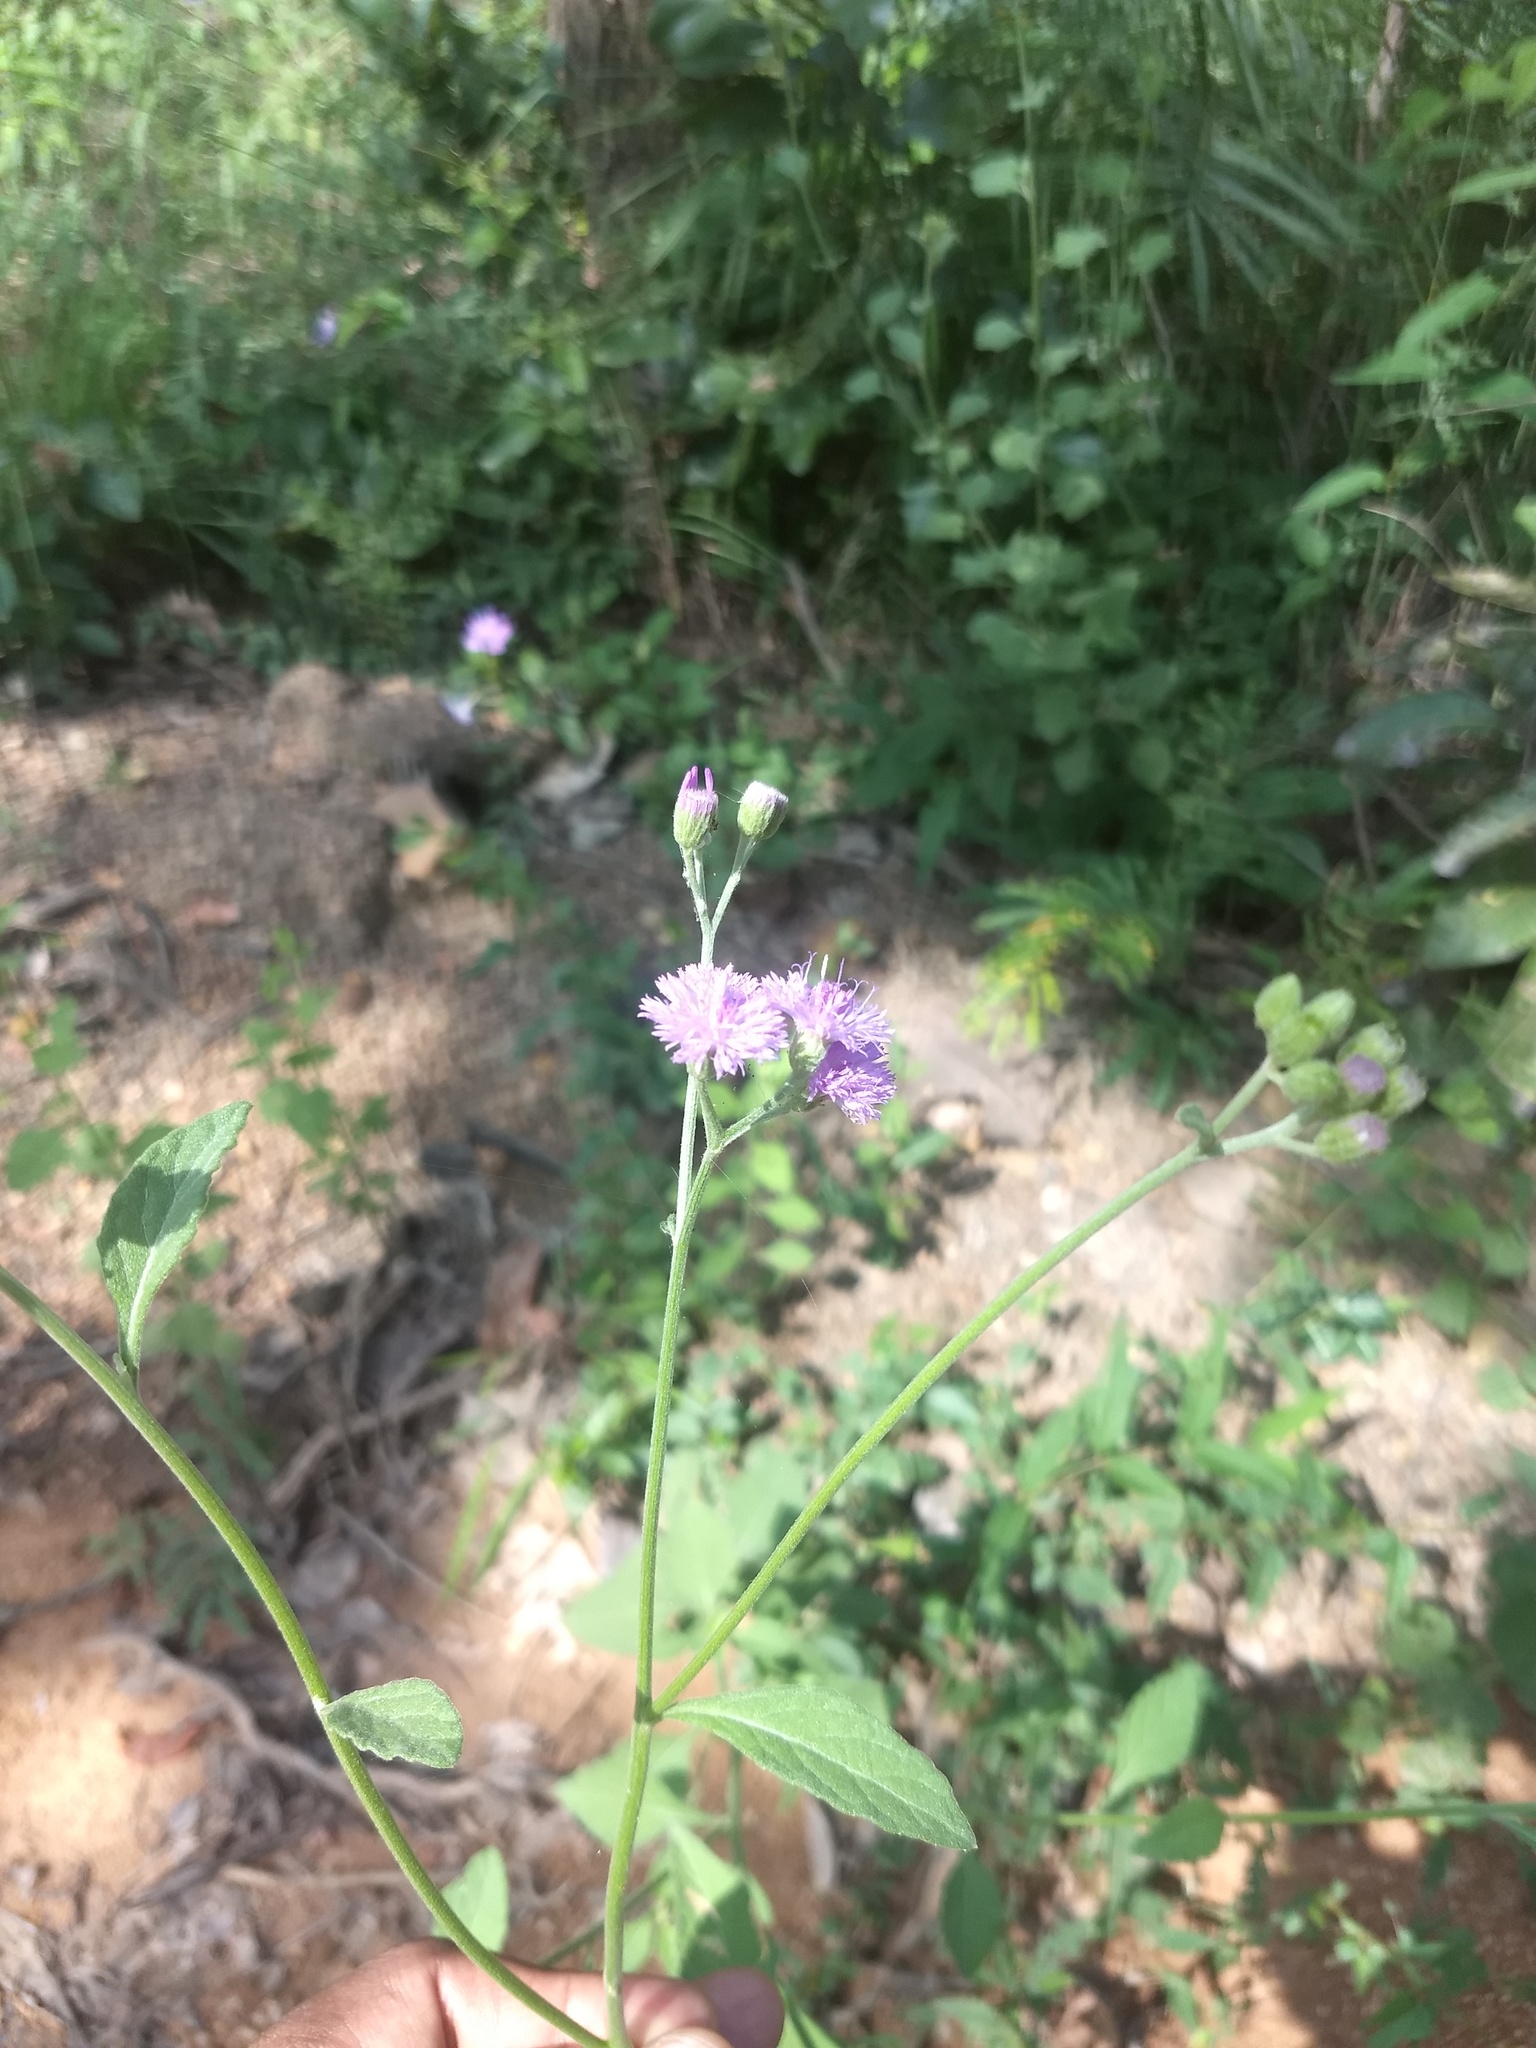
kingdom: Plantae
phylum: Tracheophyta
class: Magnoliopsida
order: Asterales
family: Asteraceae
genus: Cyanthillium
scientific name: Cyanthillium cinereum
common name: Little ironweed
